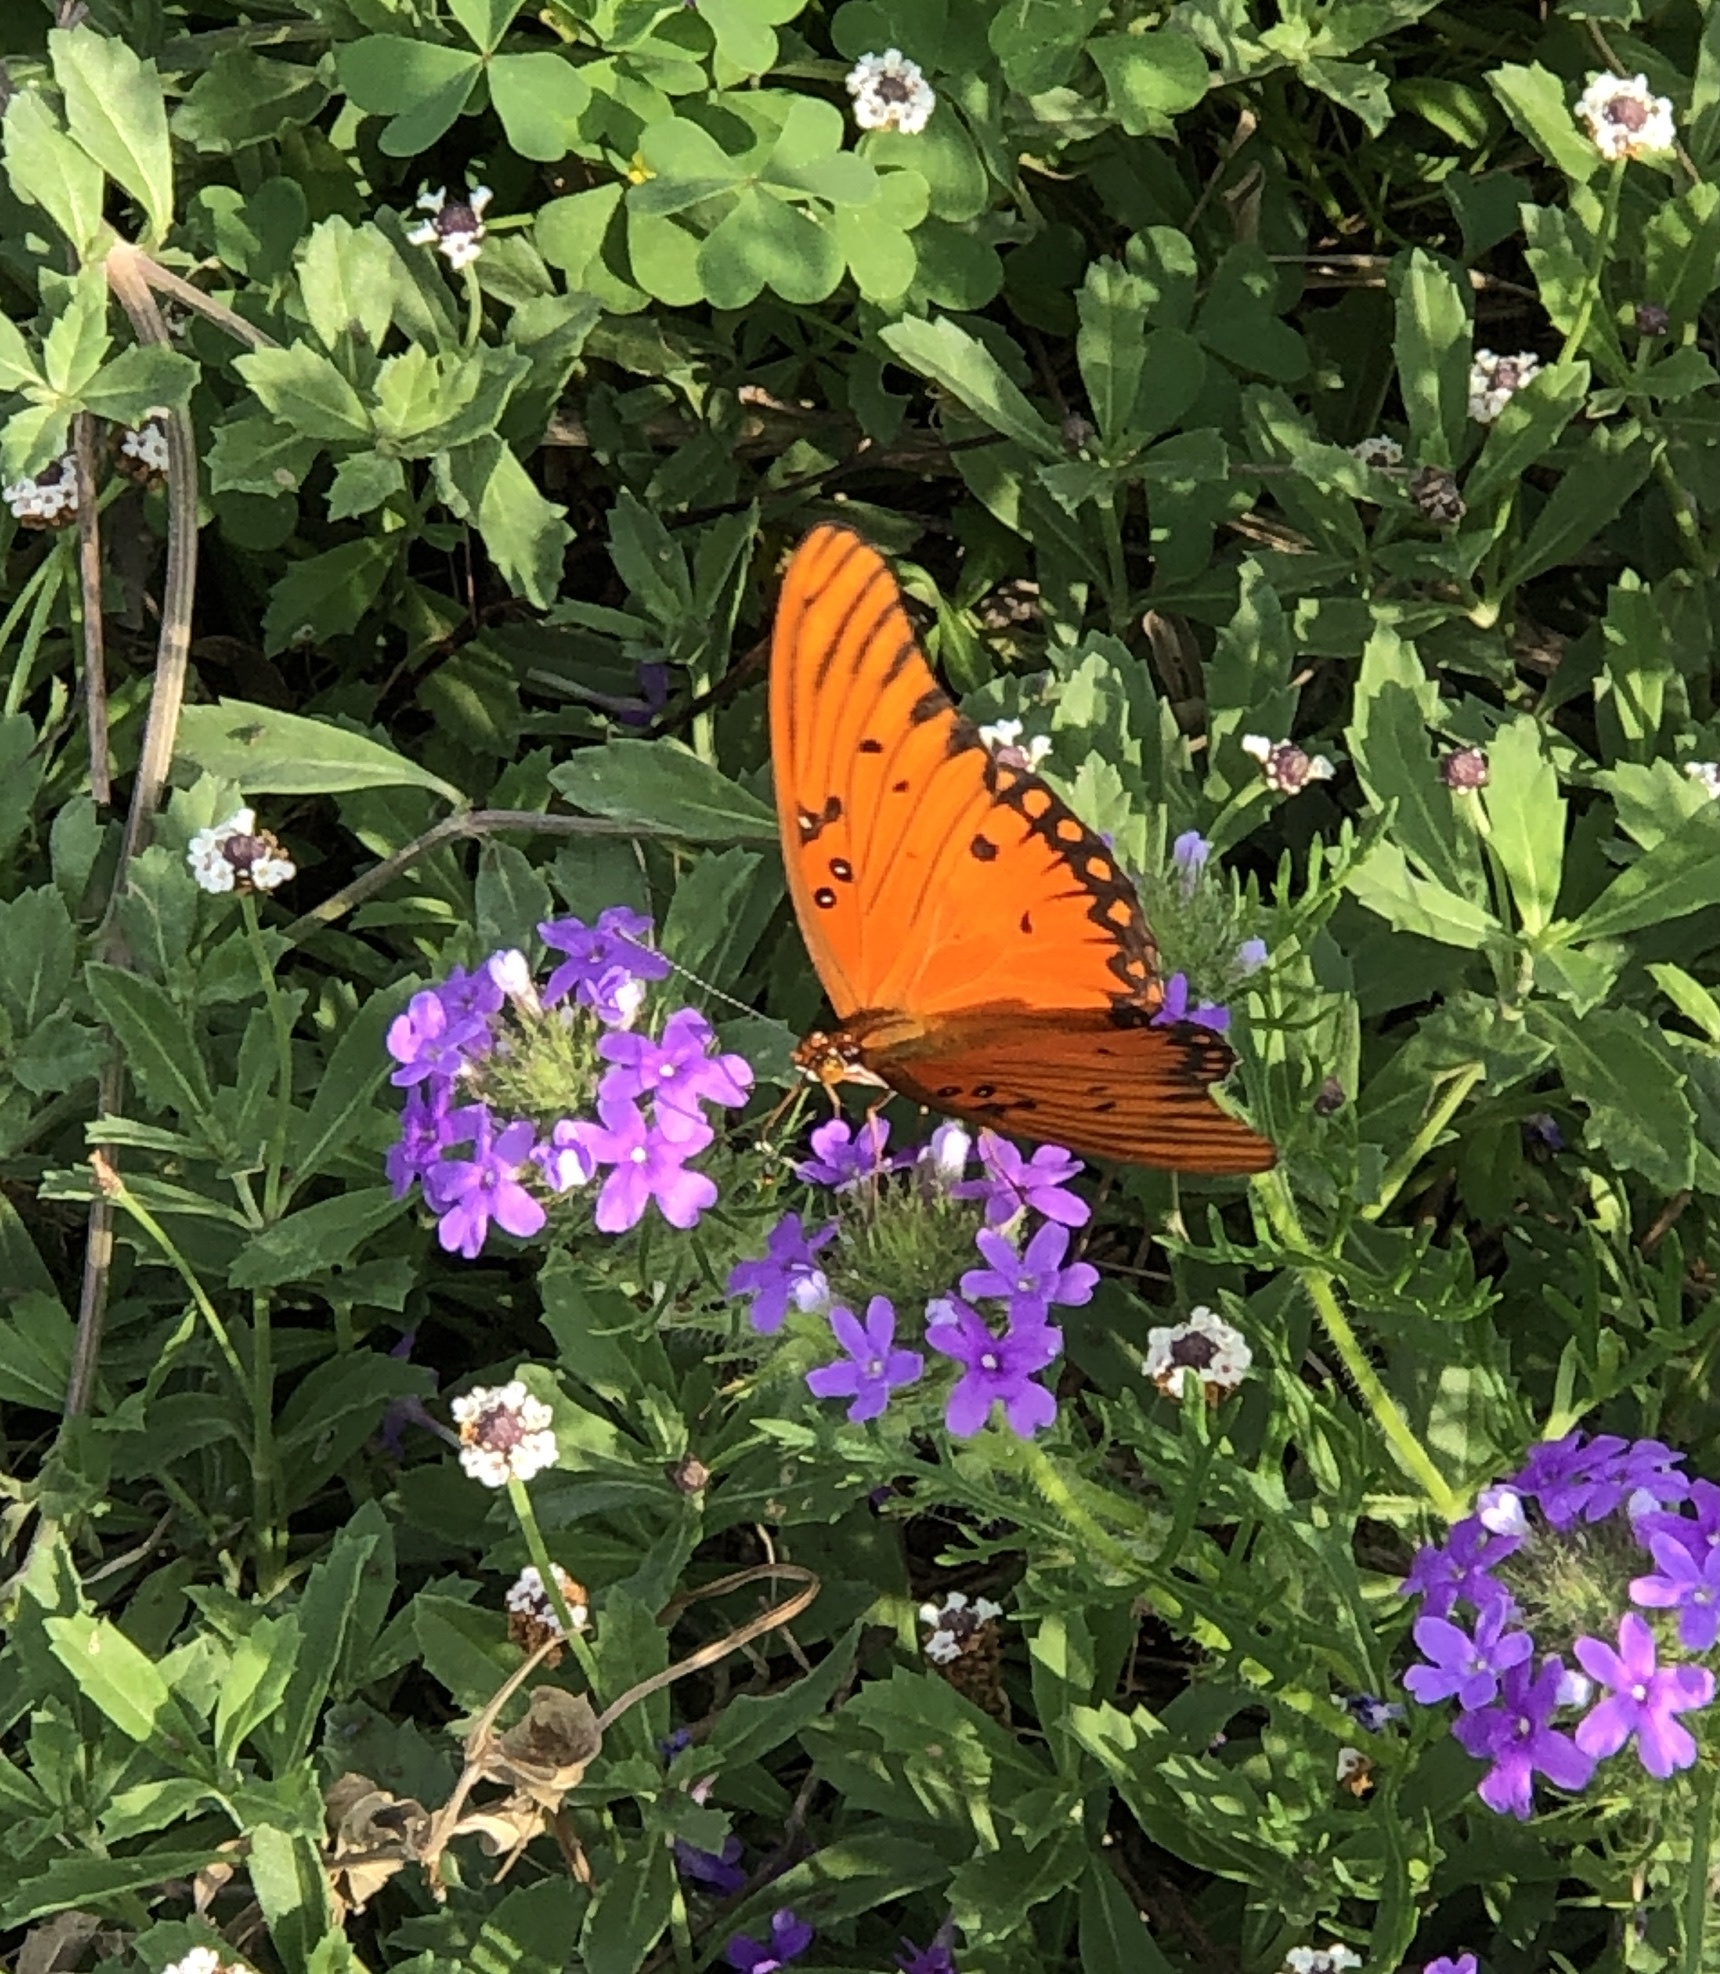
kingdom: Animalia
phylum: Arthropoda
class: Insecta
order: Lepidoptera
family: Nymphalidae
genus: Dione
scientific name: Dione vanillae
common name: Gulf fritillary
